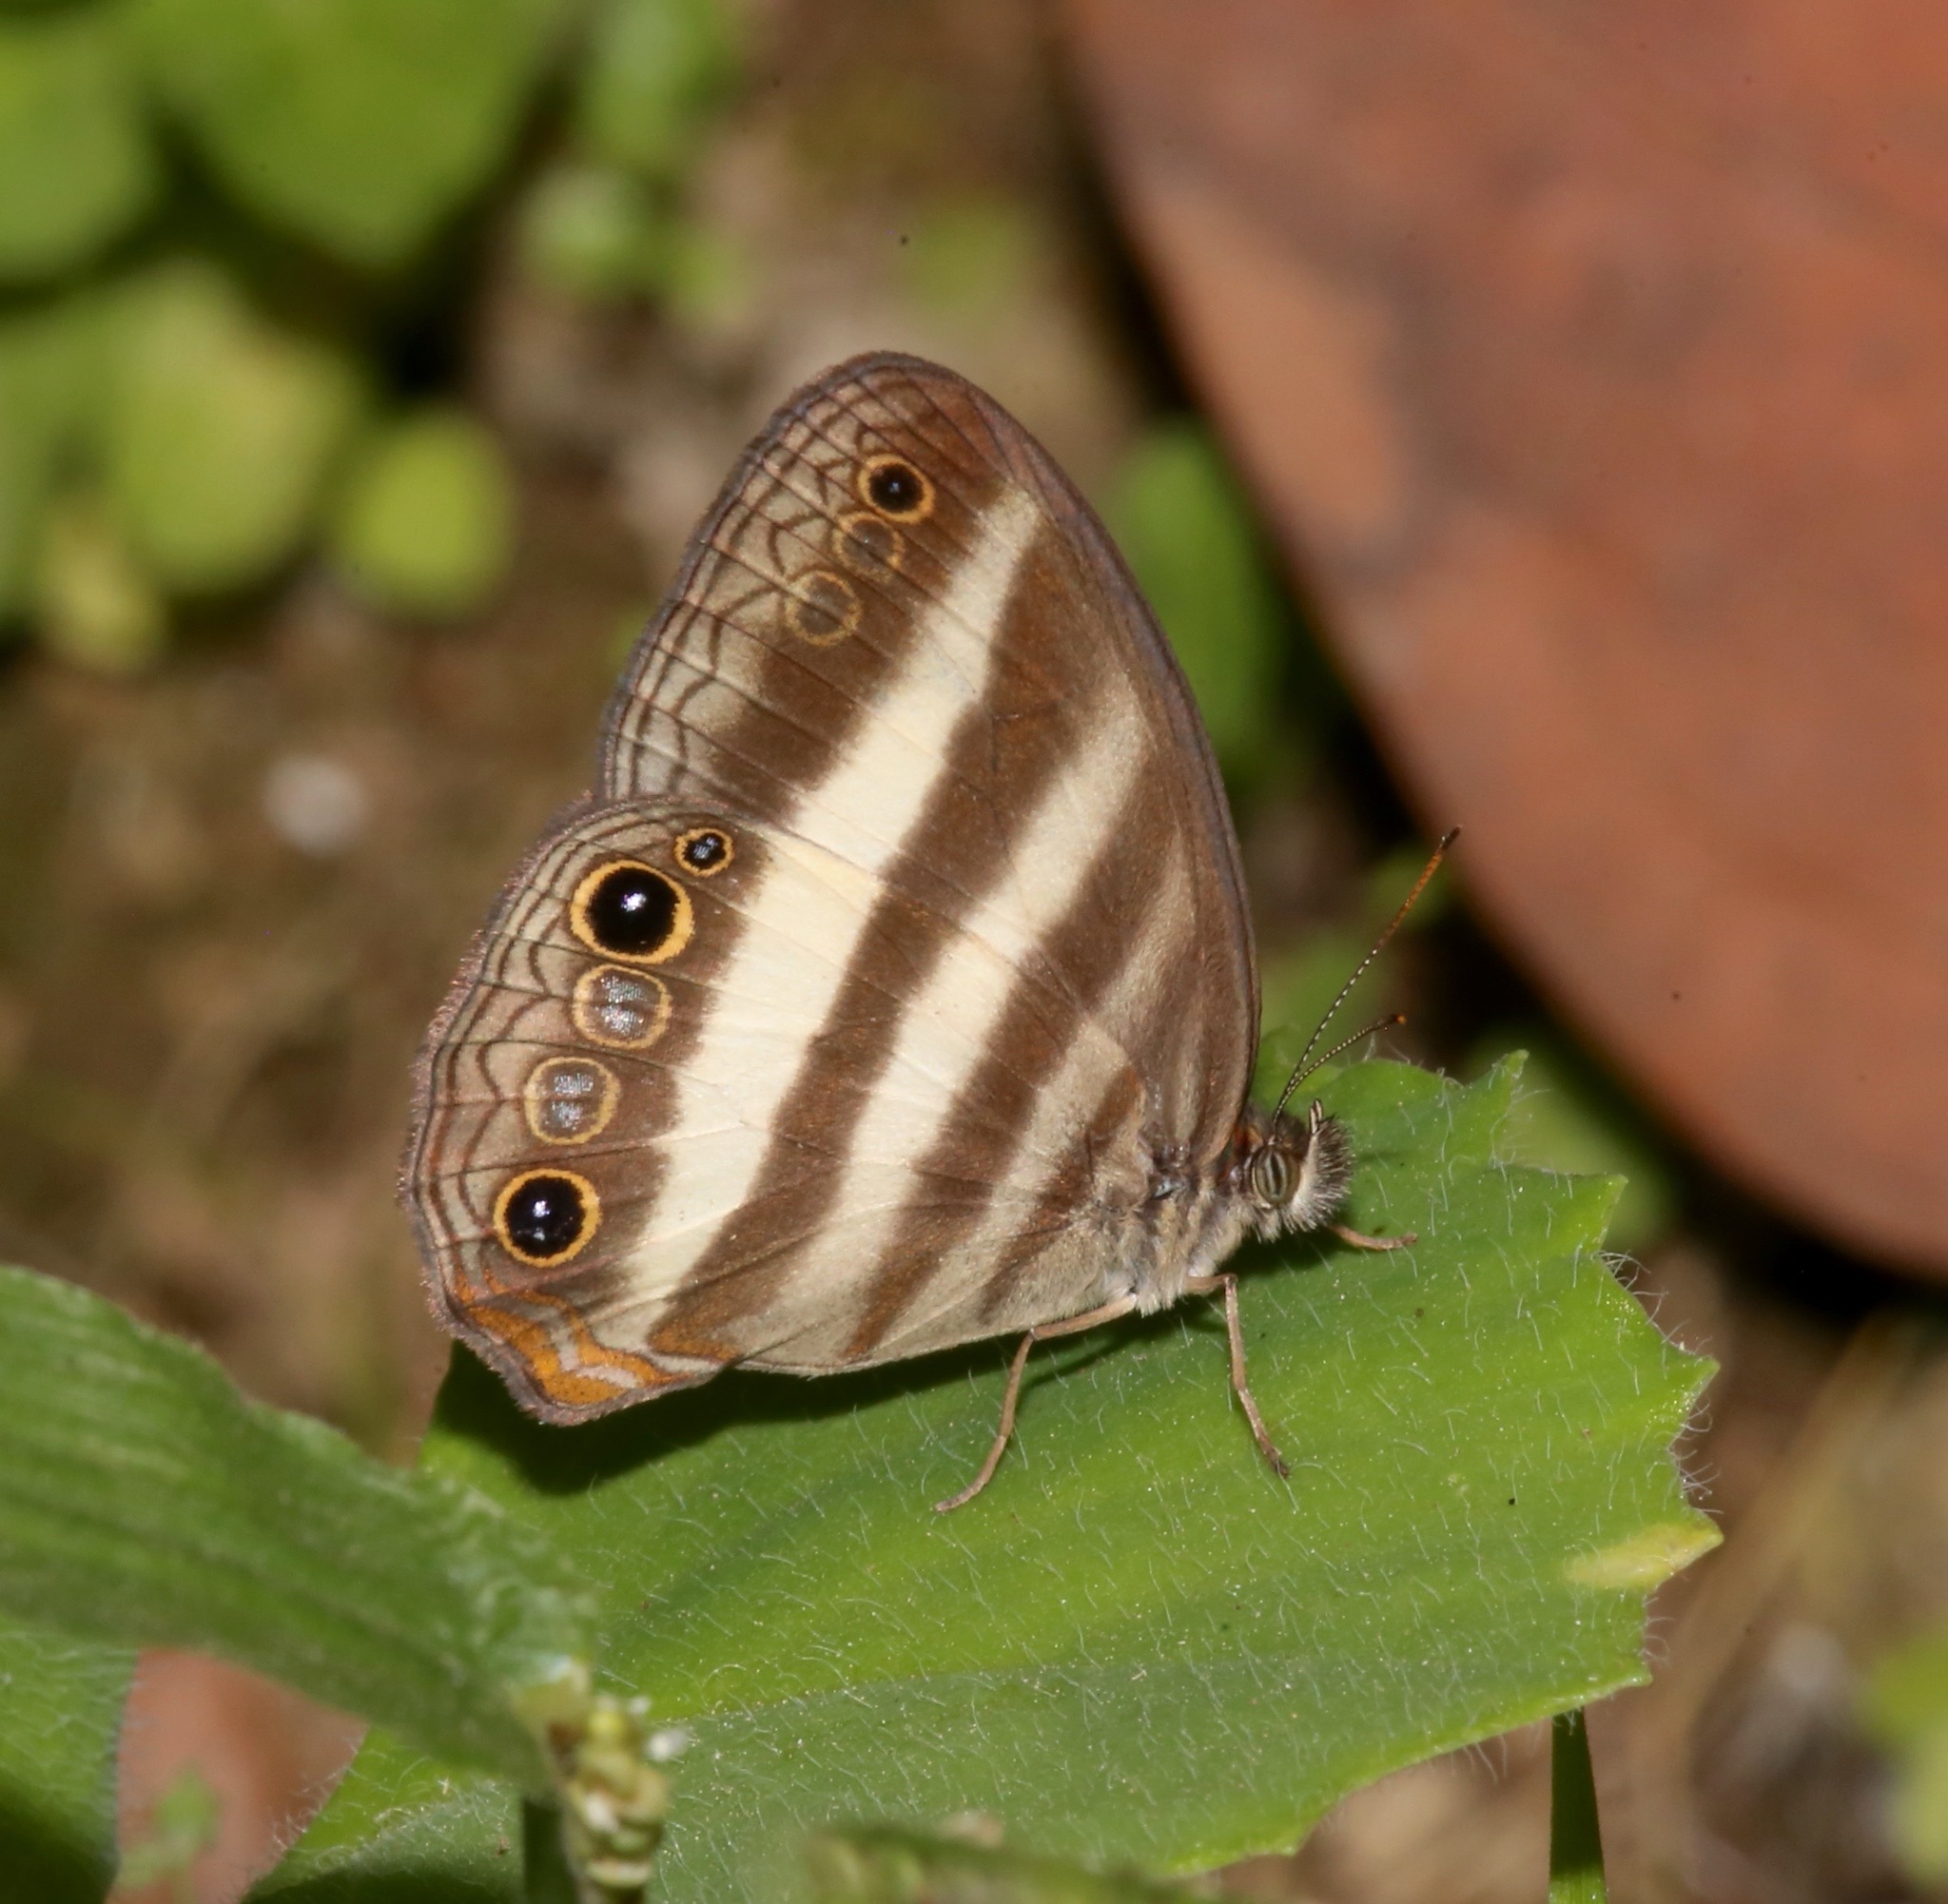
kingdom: Animalia
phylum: Arthropoda
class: Insecta
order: Lepidoptera
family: Nymphalidae
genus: Pareuptychia
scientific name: Pareuptychia hesione
